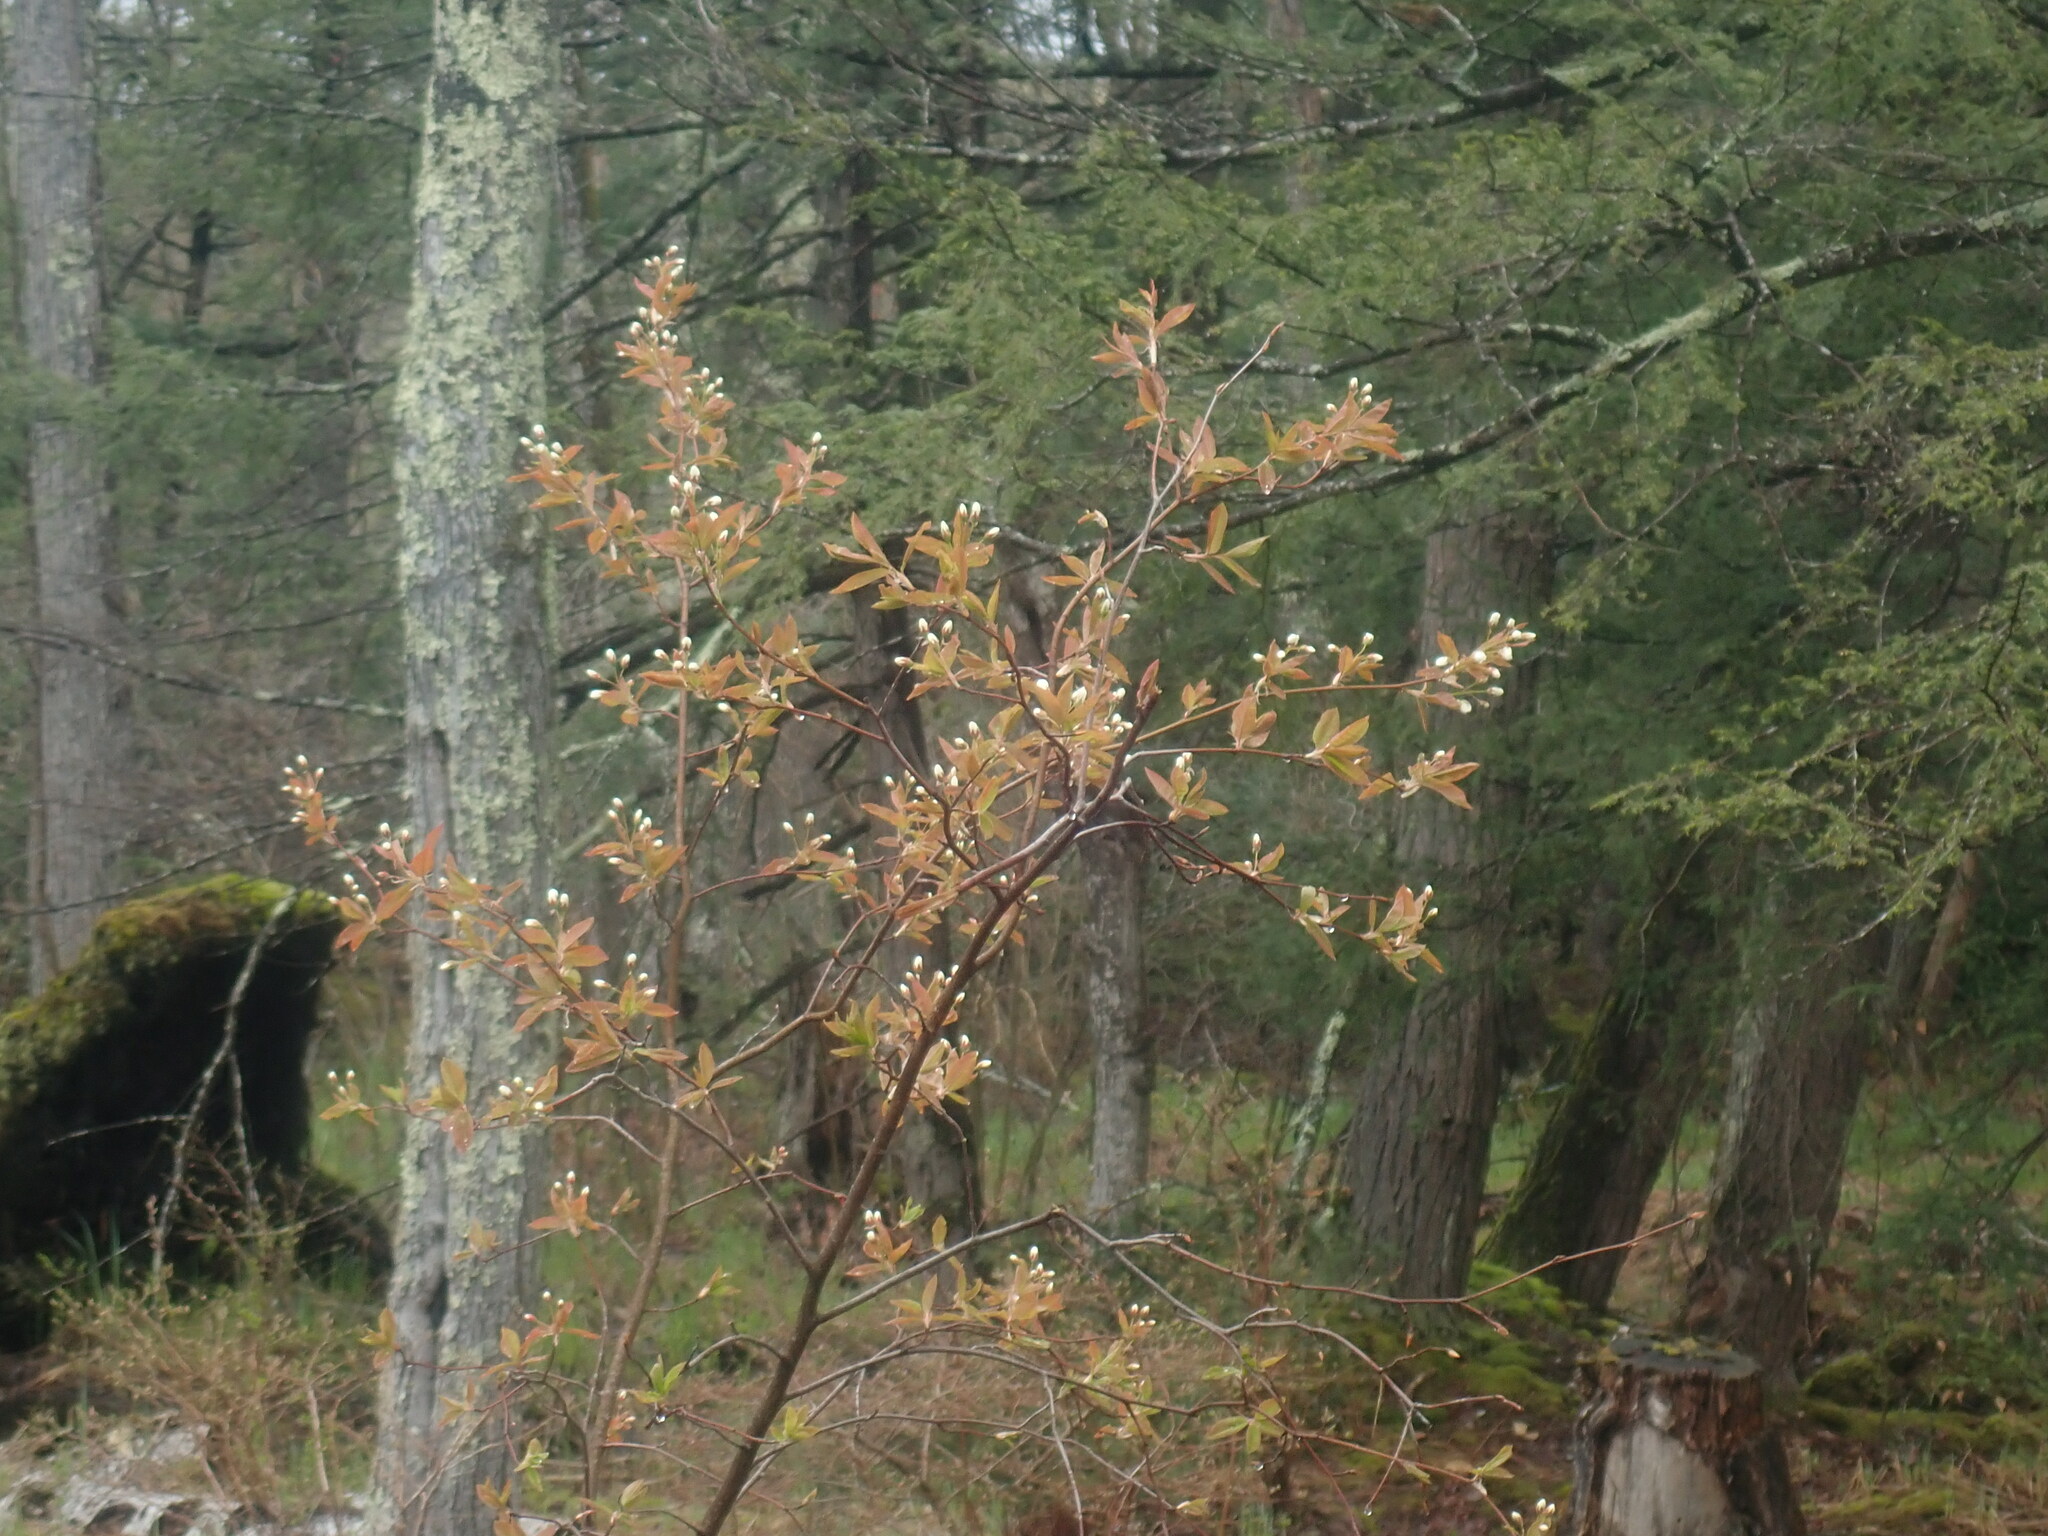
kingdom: Plantae
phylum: Tracheophyta
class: Magnoliopsida
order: Rosales
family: Rosaceae
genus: Amelanchier
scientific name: Amelanchier
